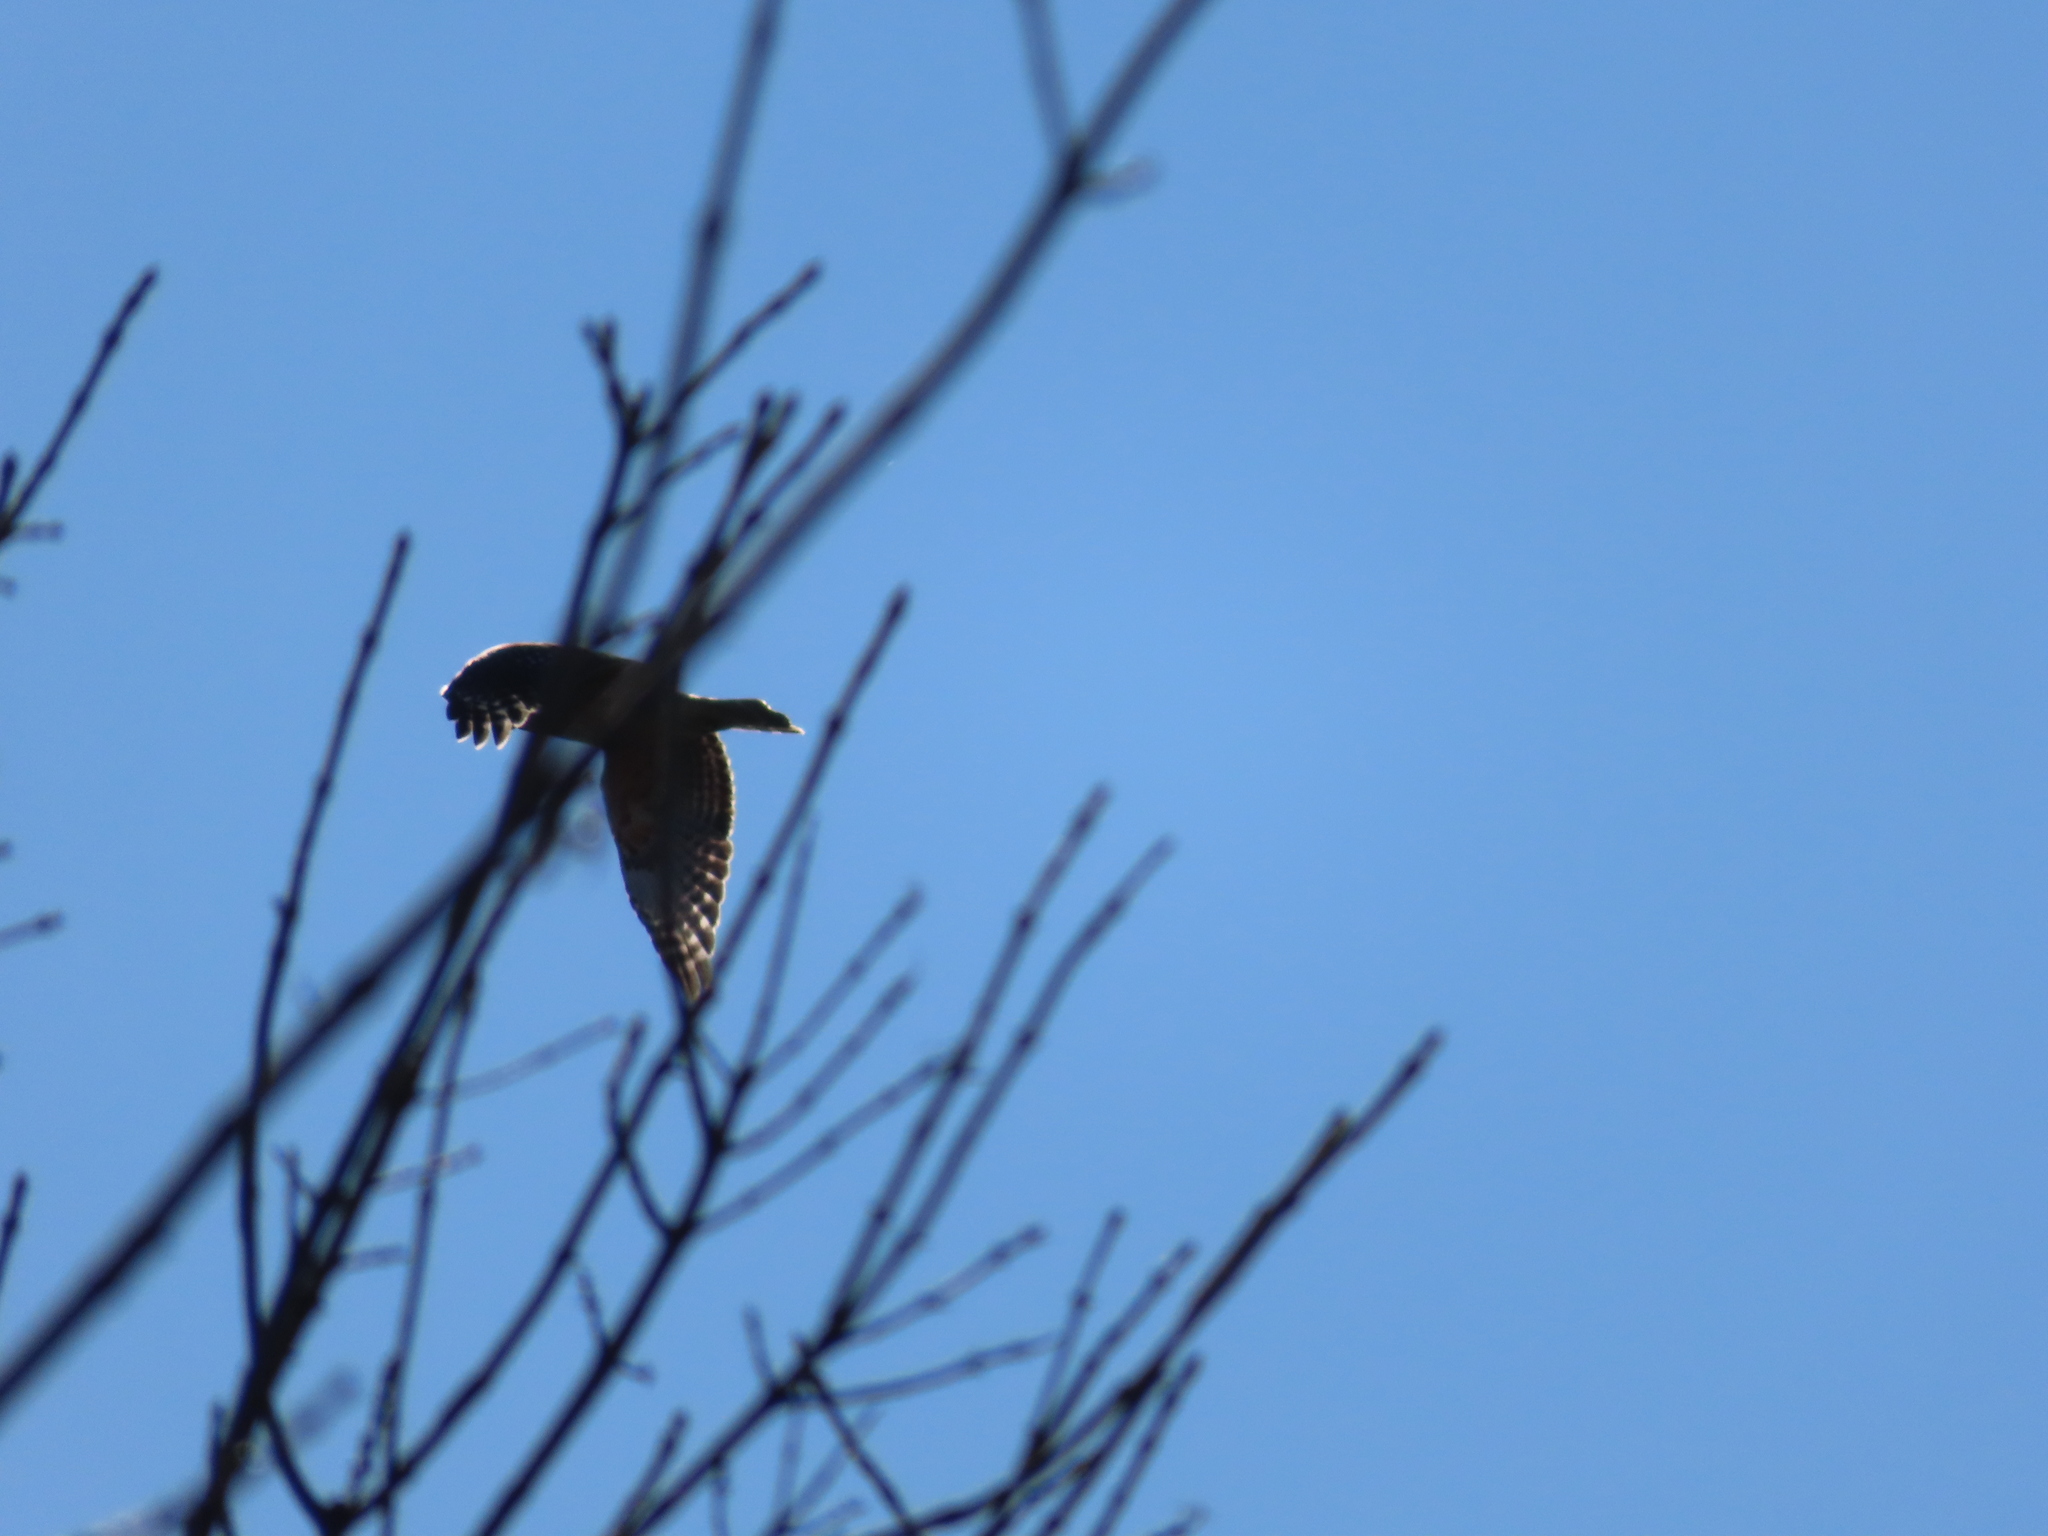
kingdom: Animalia
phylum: Chordata
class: Aves
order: Accipitriformes
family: Accipitridae
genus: Buteo
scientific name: Buteo lineatus
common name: Red-shouldered hawk
